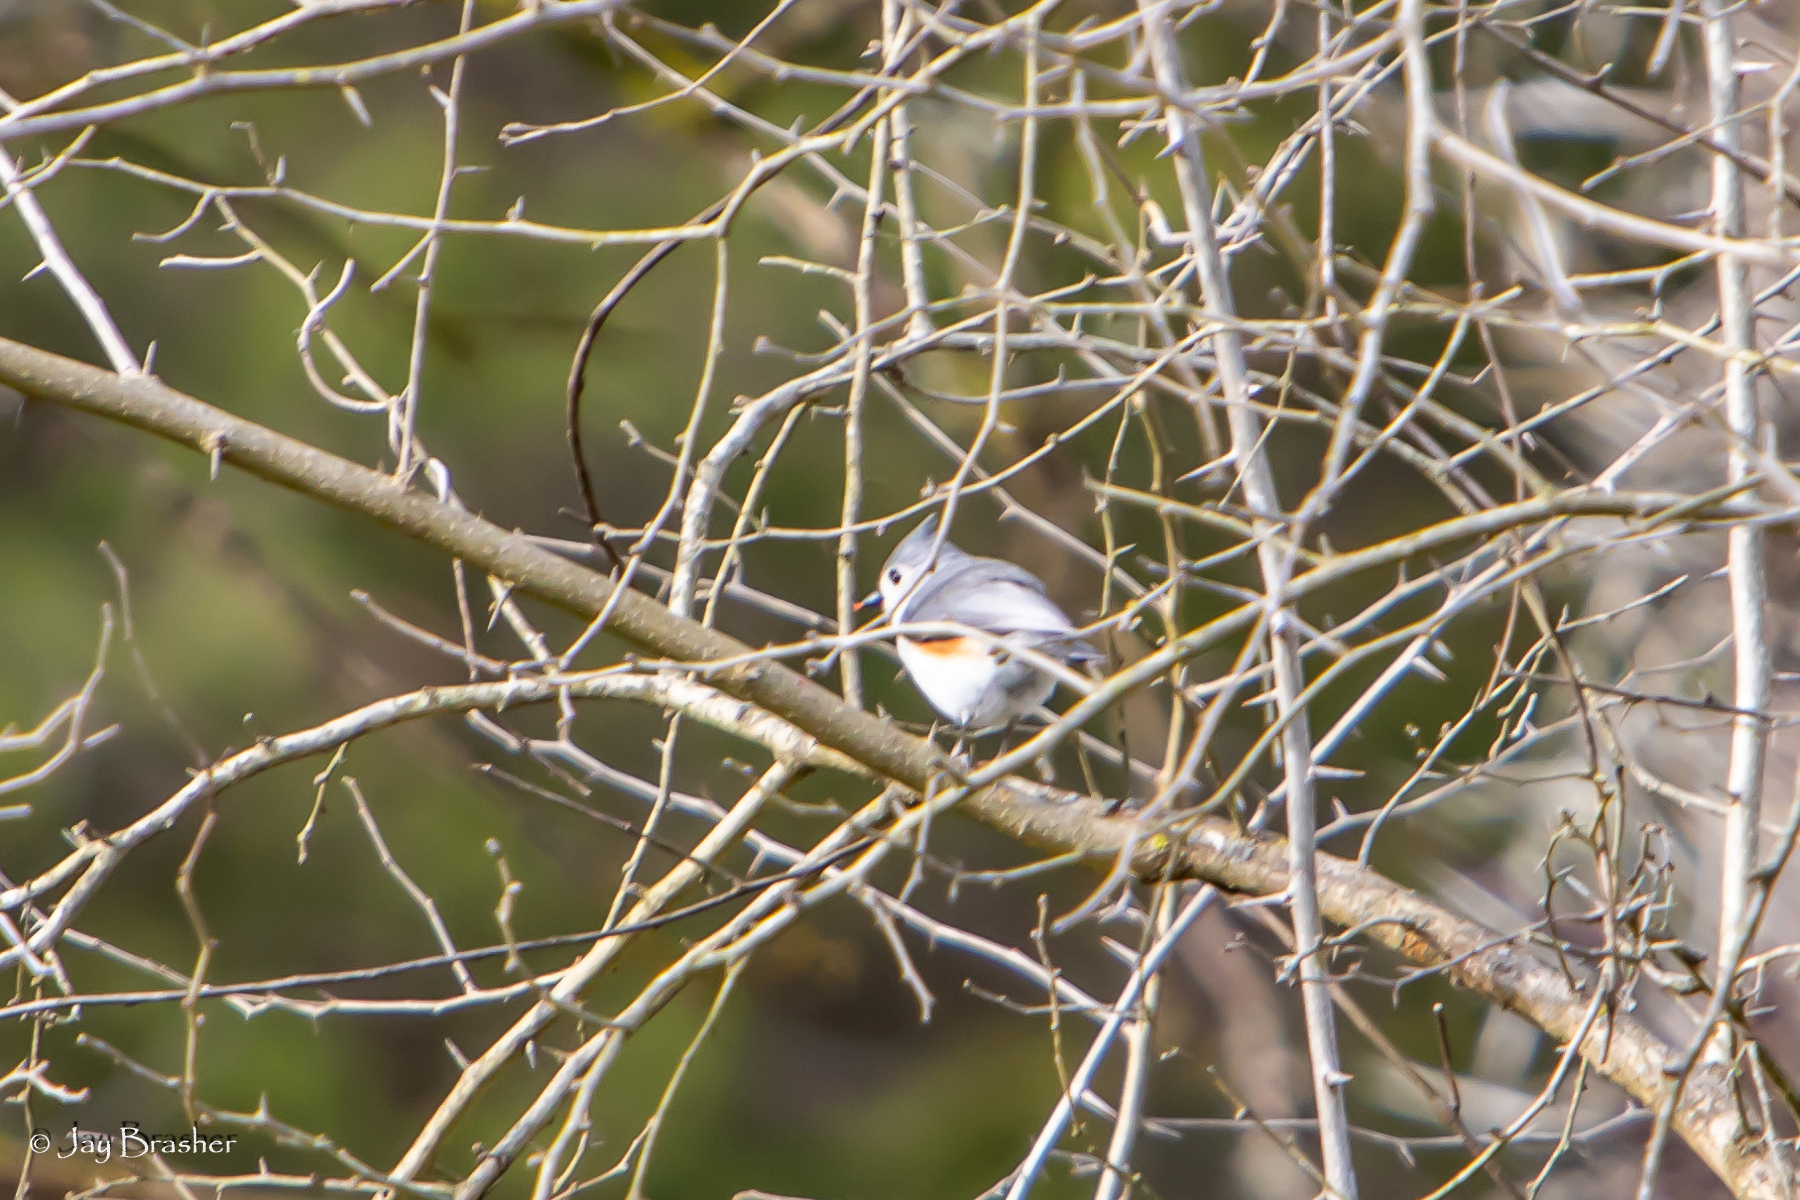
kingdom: Animalia
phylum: Chordata
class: Aves
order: Passeriformes
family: Paridae
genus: Baeolophus
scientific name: Baeolophus bicolor
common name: Tufted titmouse
